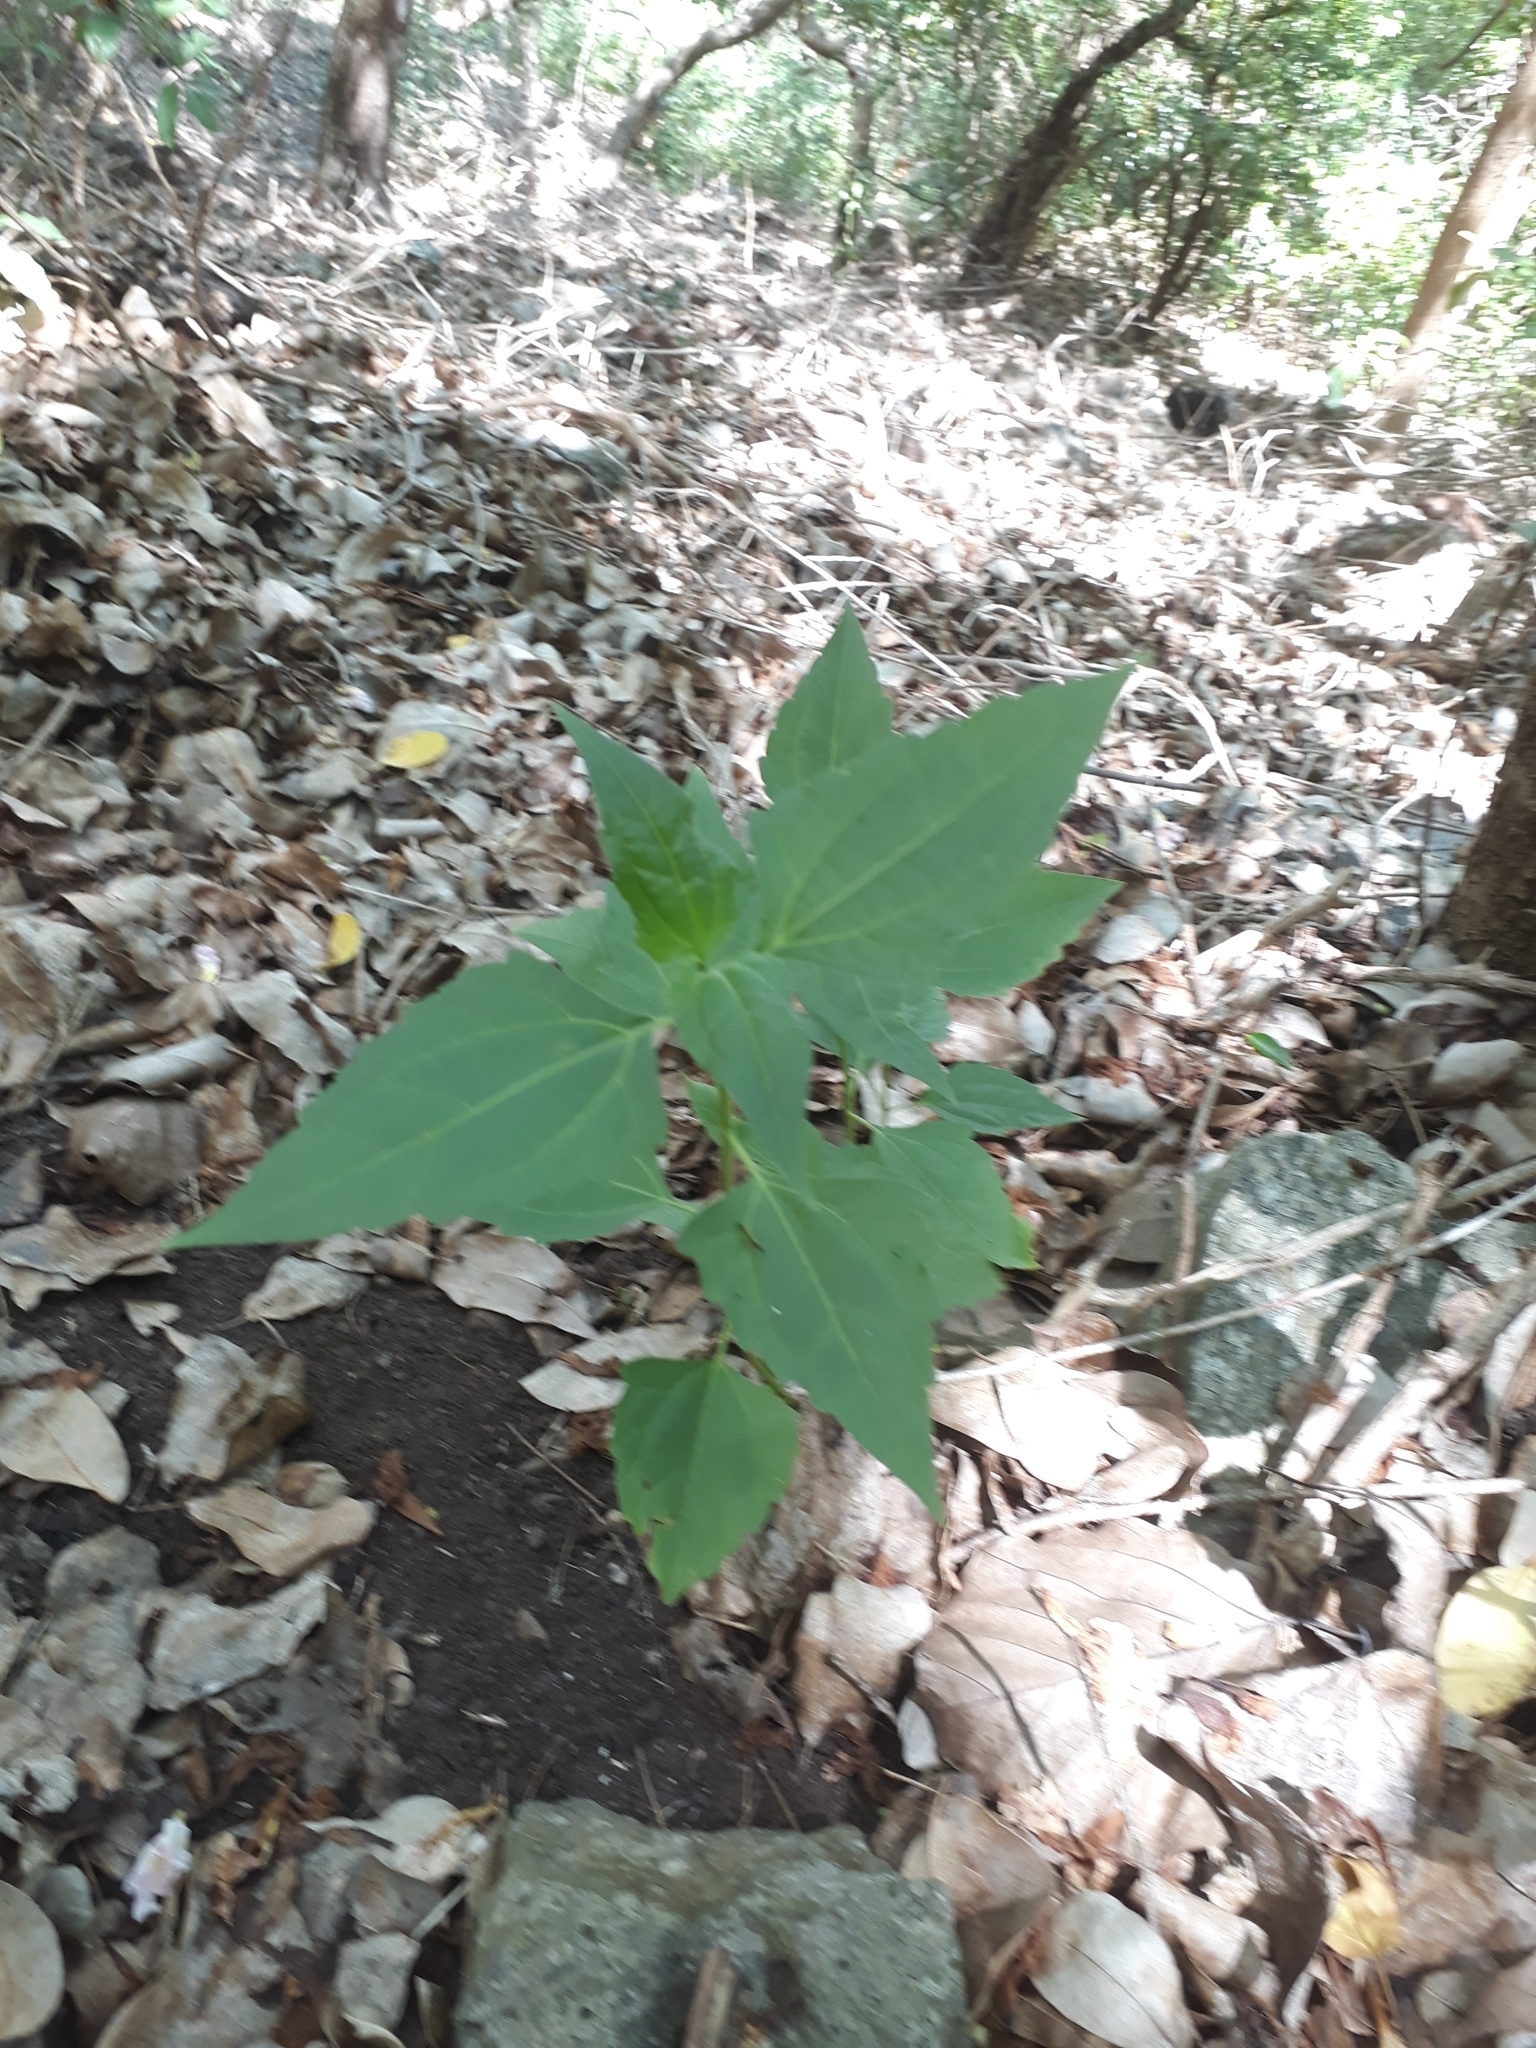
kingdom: Plantae
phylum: Tracheophyta
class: Magnoliopsida
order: Asterales
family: Asteraceae
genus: Chromolaena
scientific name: Chromolaena odorata
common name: Siamweed
